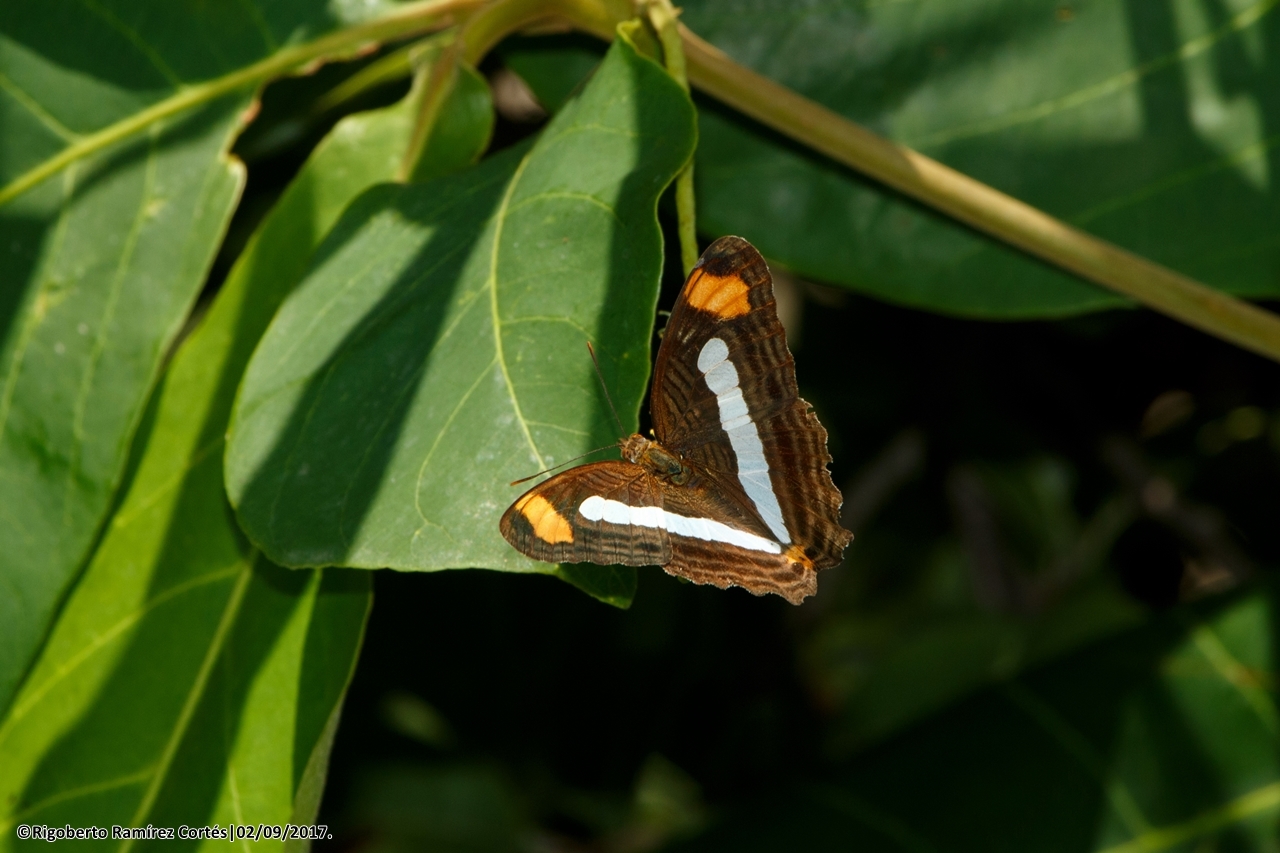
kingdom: Animalia
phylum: Arthropoda
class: Insecta
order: Lepidoptera
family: Nymphalidae
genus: Limenitis
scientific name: Limenitis iphiclus
